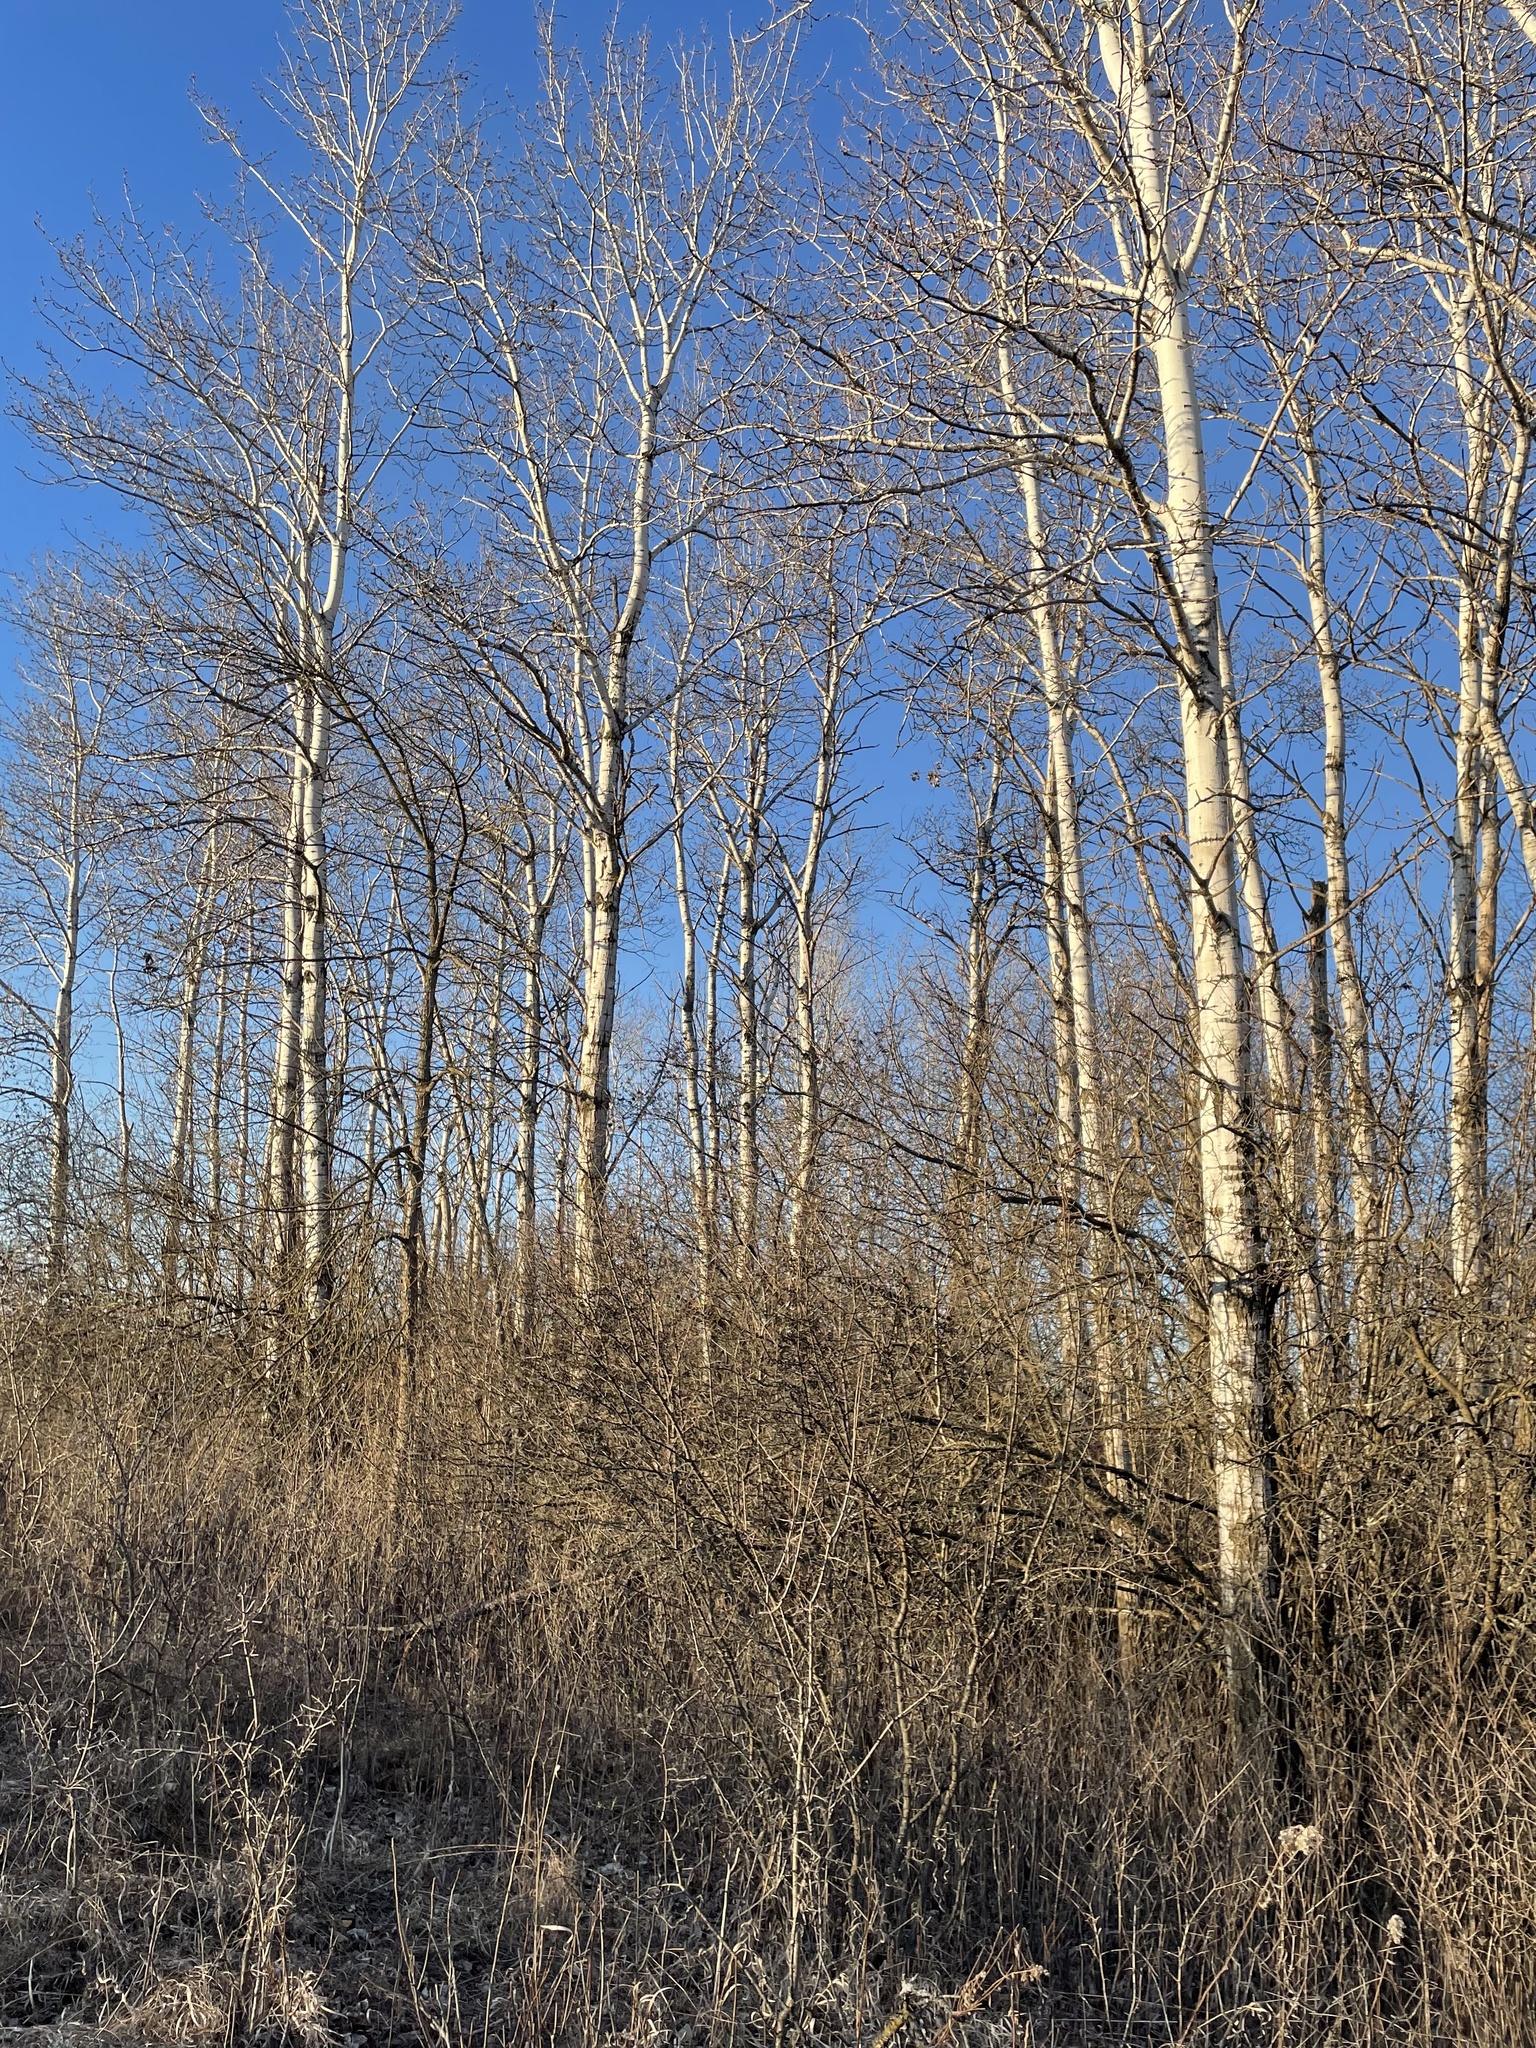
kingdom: Plantae
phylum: Tracheophyta
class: Magnoliopsida
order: Malpighiales
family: Salicaceae
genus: Populus
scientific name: Populus tremuloides
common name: Quaking aspen
